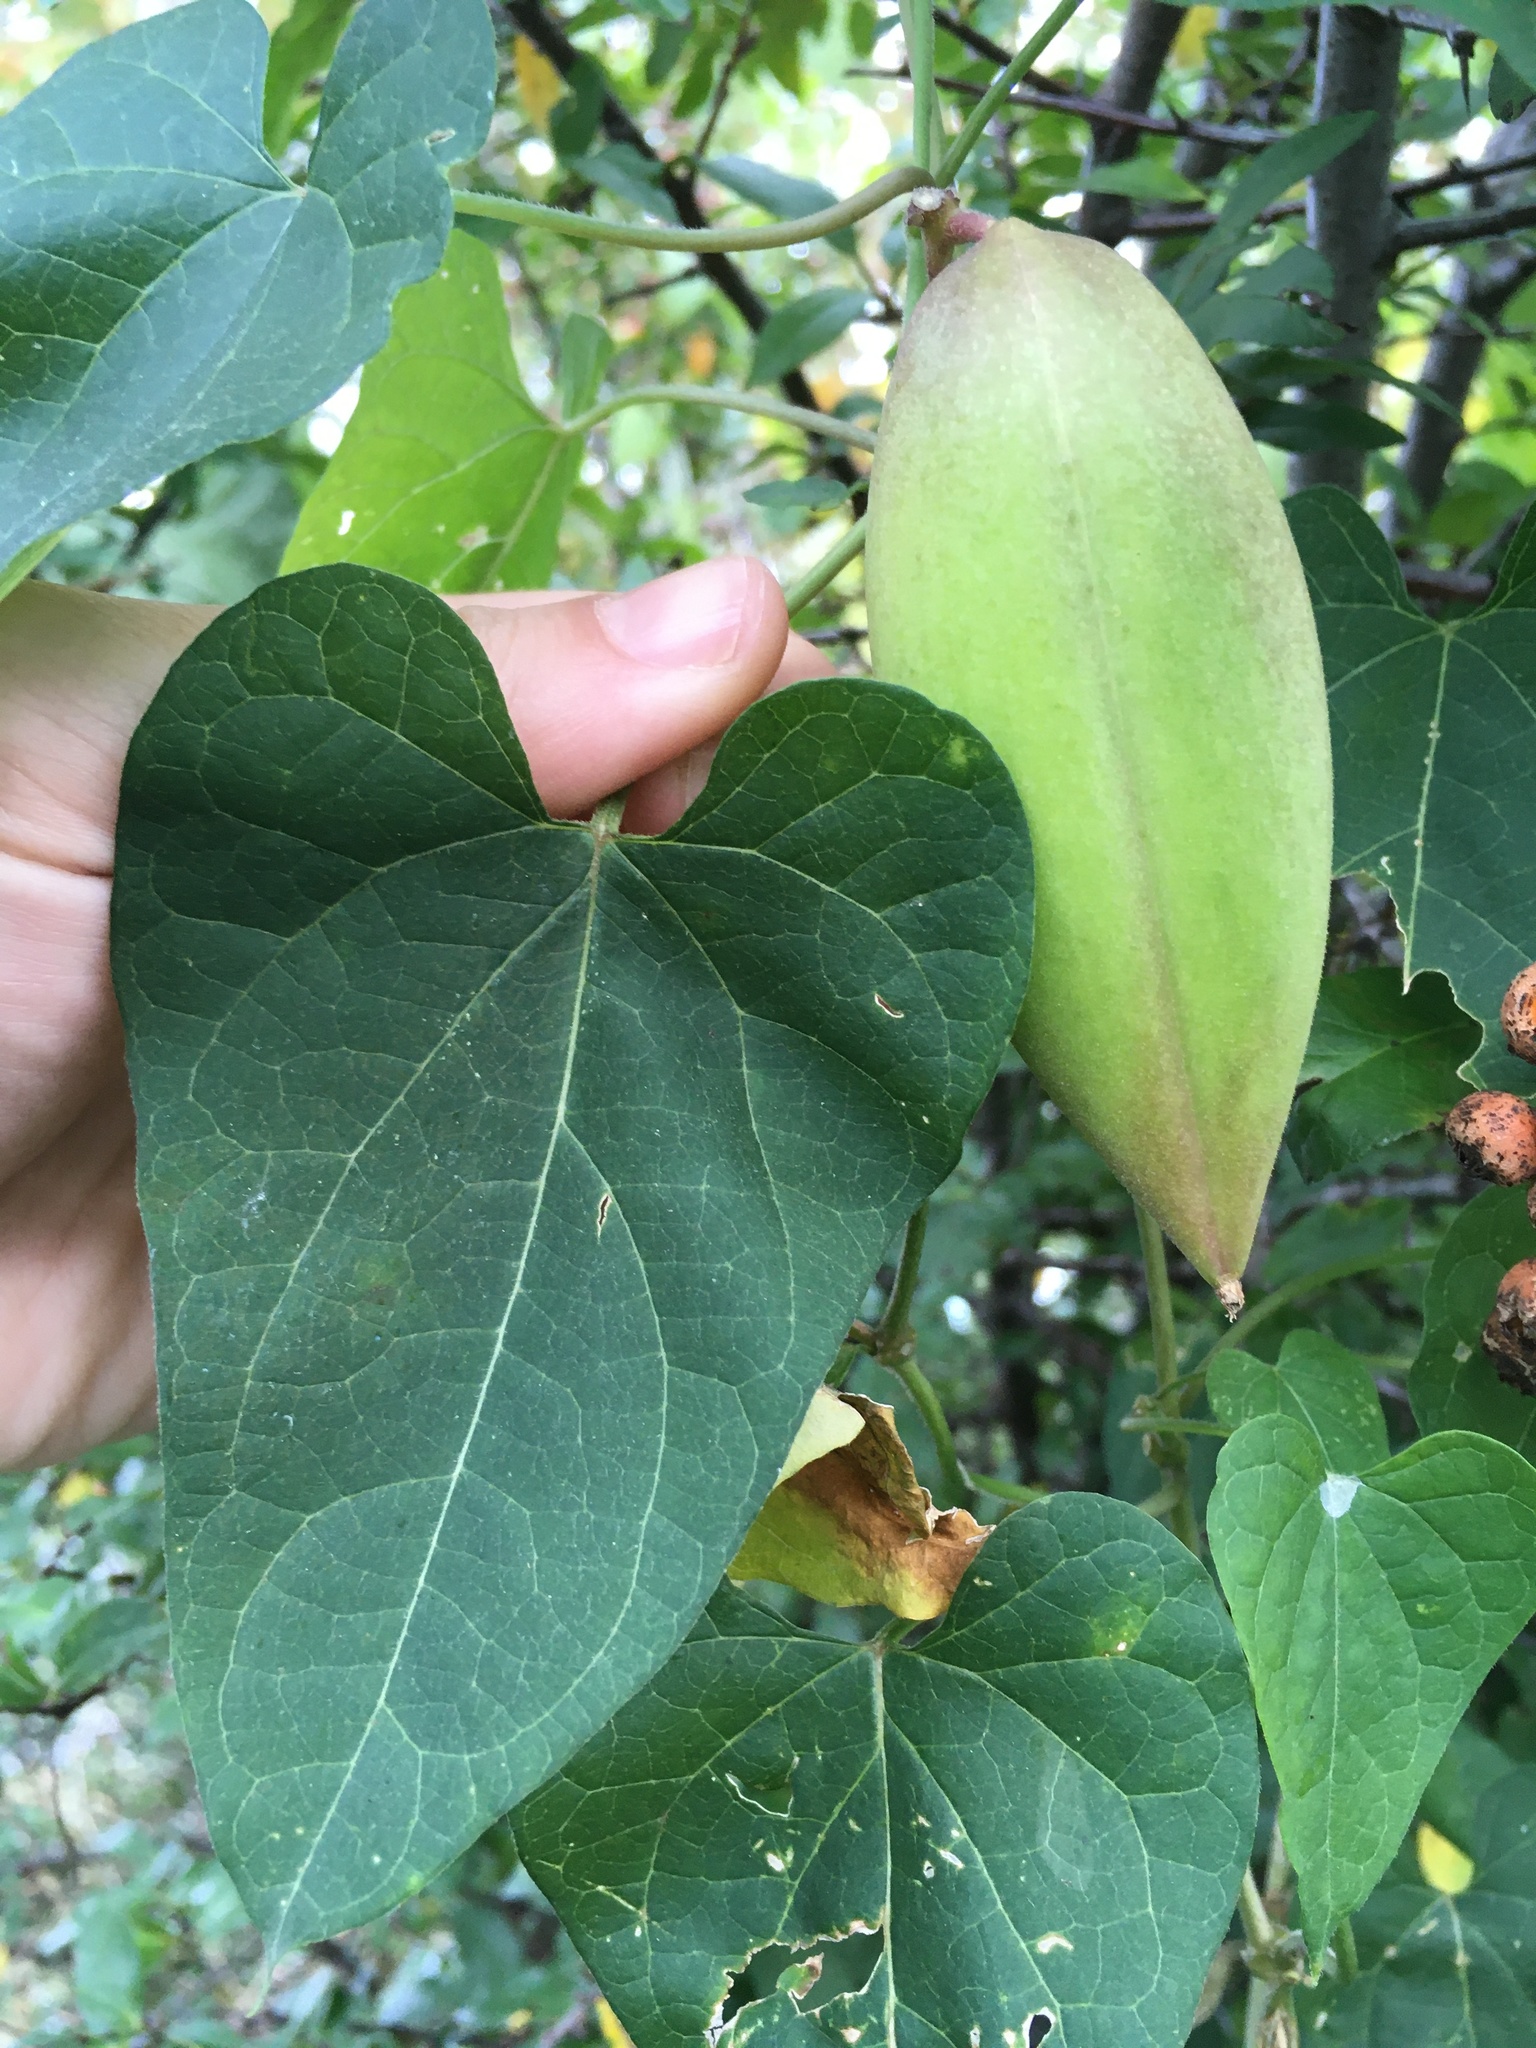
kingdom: Plantae
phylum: Tracheophyta
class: Magnoliopsida
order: Gentianales
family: Apocynaceae
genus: Cynanchum
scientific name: Cynanchum laeve
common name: Sandvine
